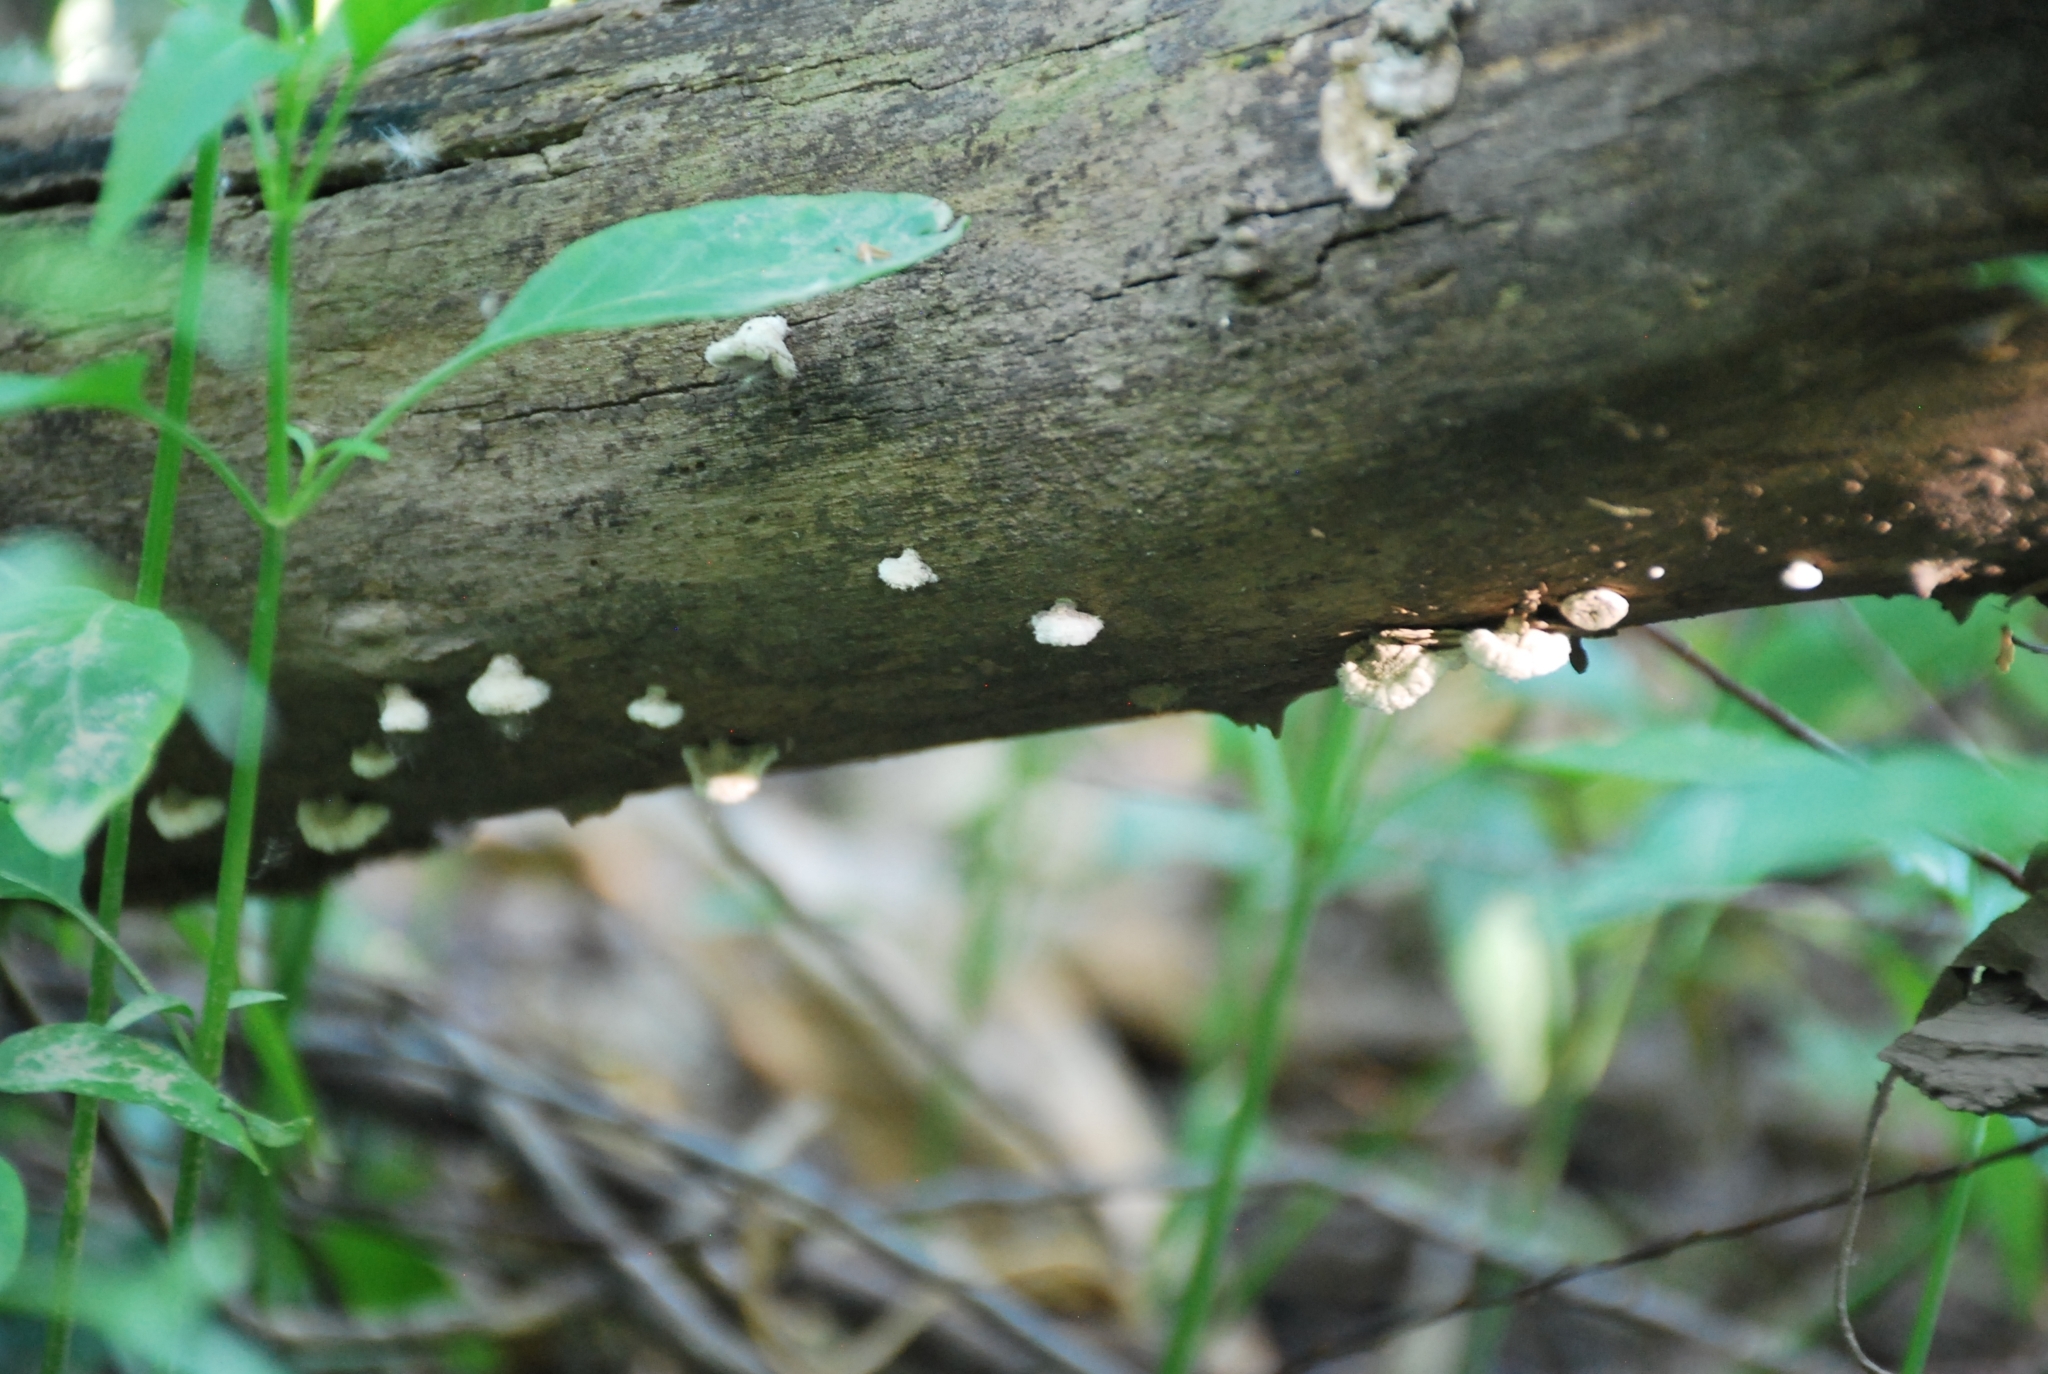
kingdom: Fungi
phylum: Basidiomycota
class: Agaricomycetes
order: Agaricales
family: Schizophyllaceae
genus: Schizophyllum
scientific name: Schizophyllum commune
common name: Common porecrust
